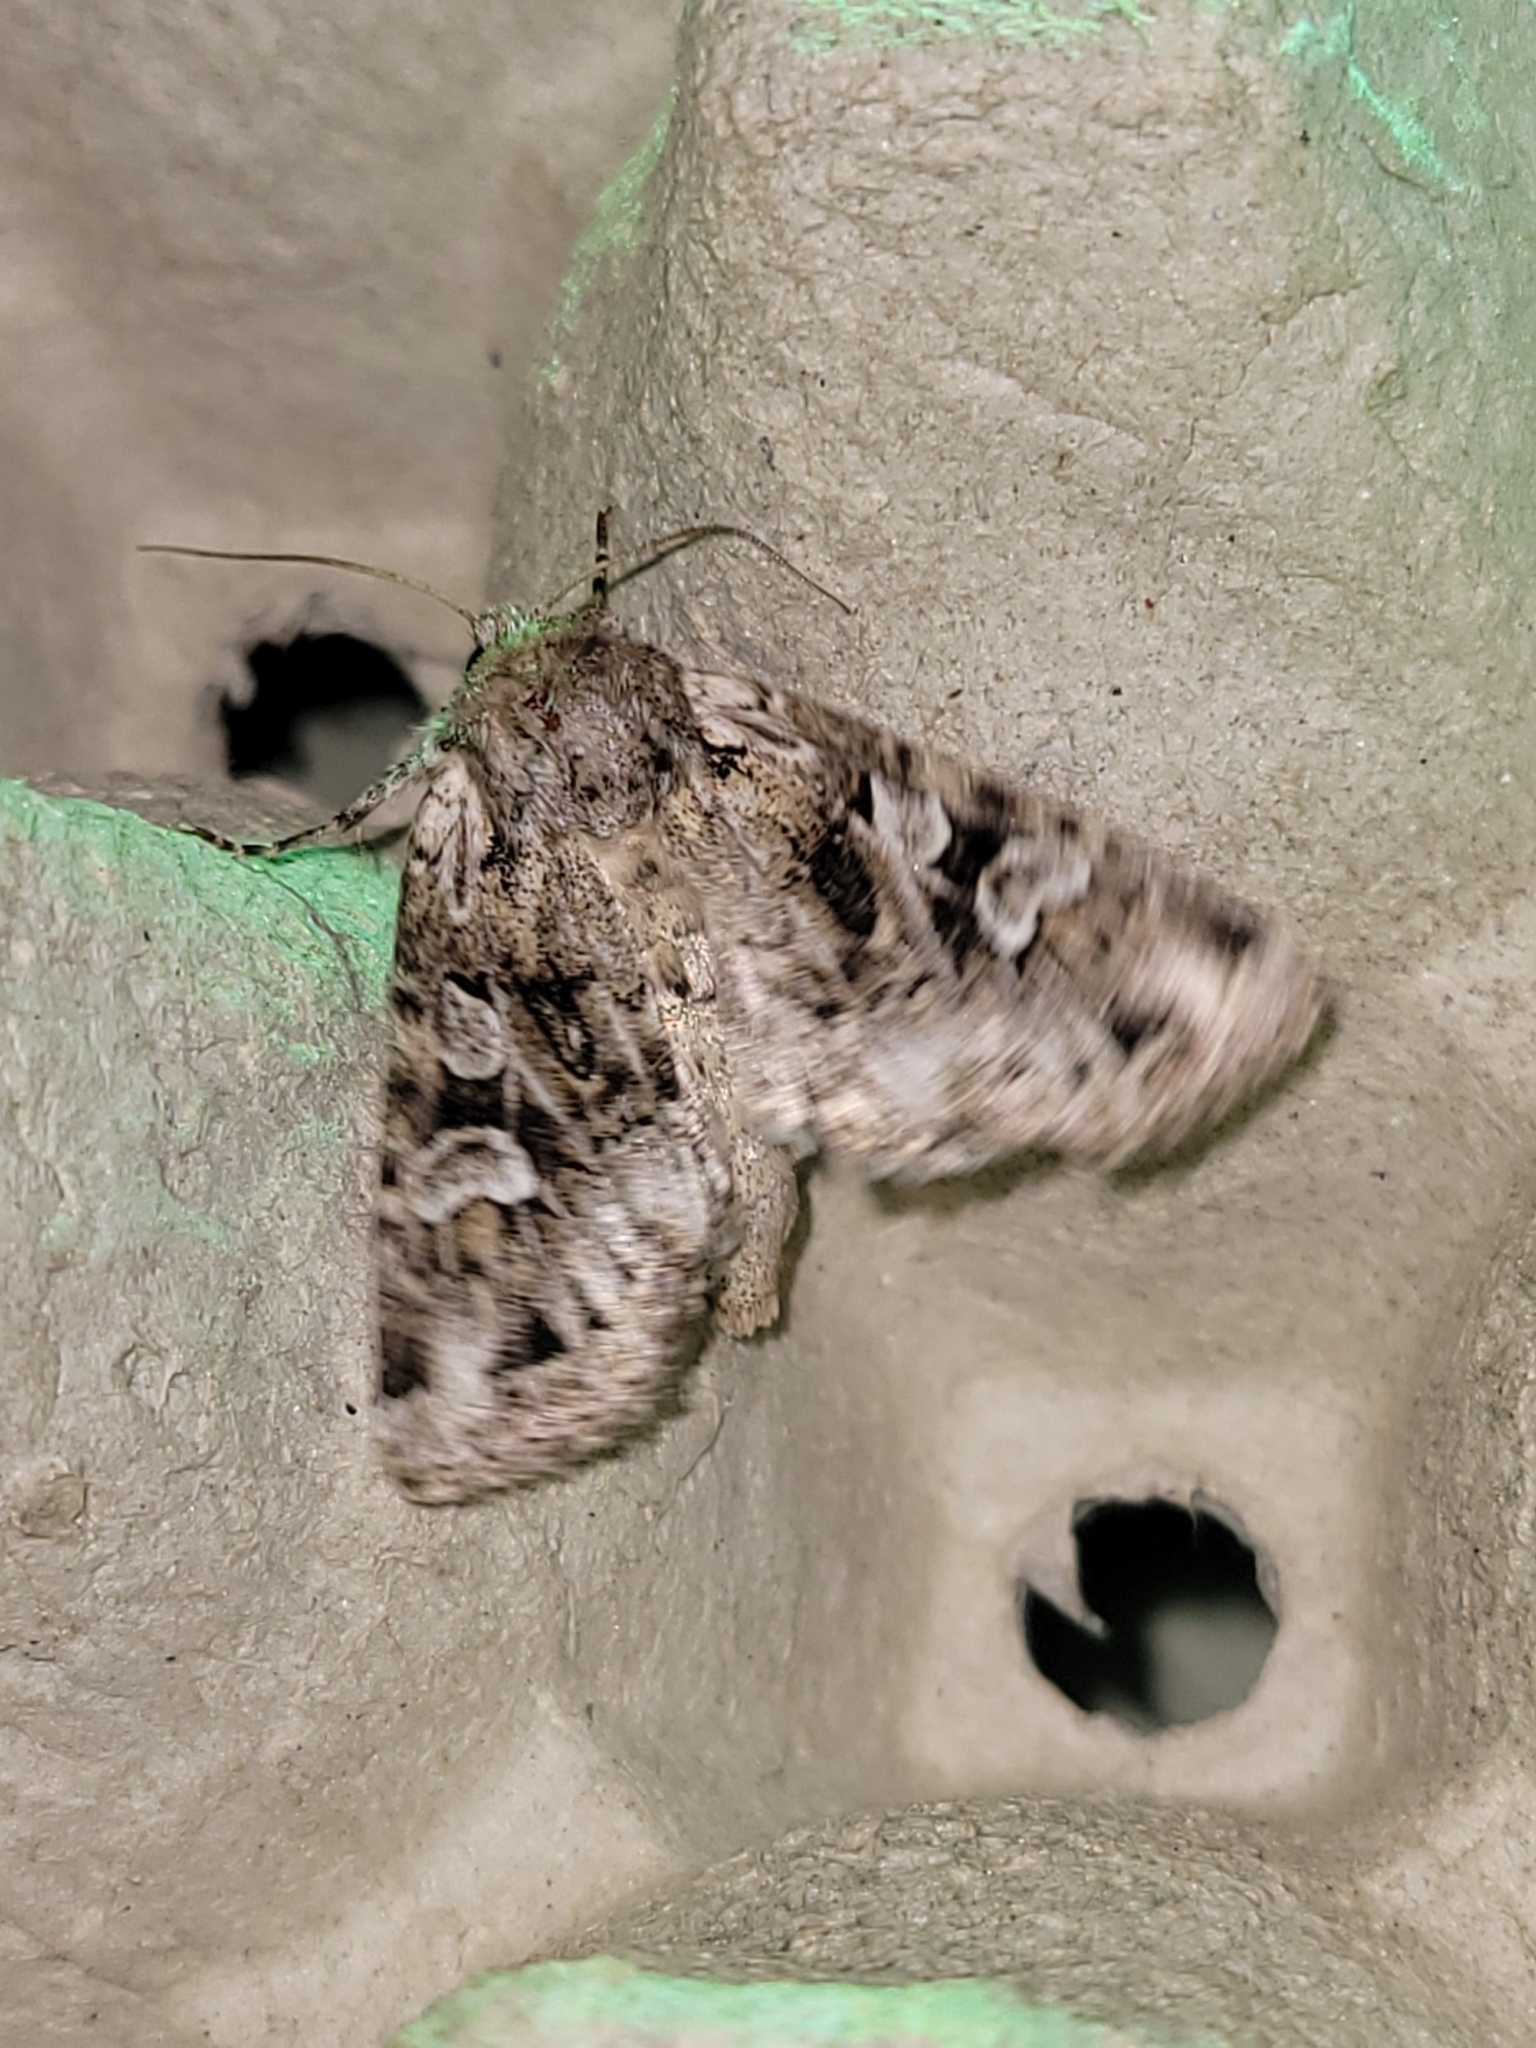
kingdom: Animalia
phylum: Arthropoda
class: Insecta
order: Lepidoptera
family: Noctuidae
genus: Pachetra
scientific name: Pachetra sagittigera
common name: Feathered ear
